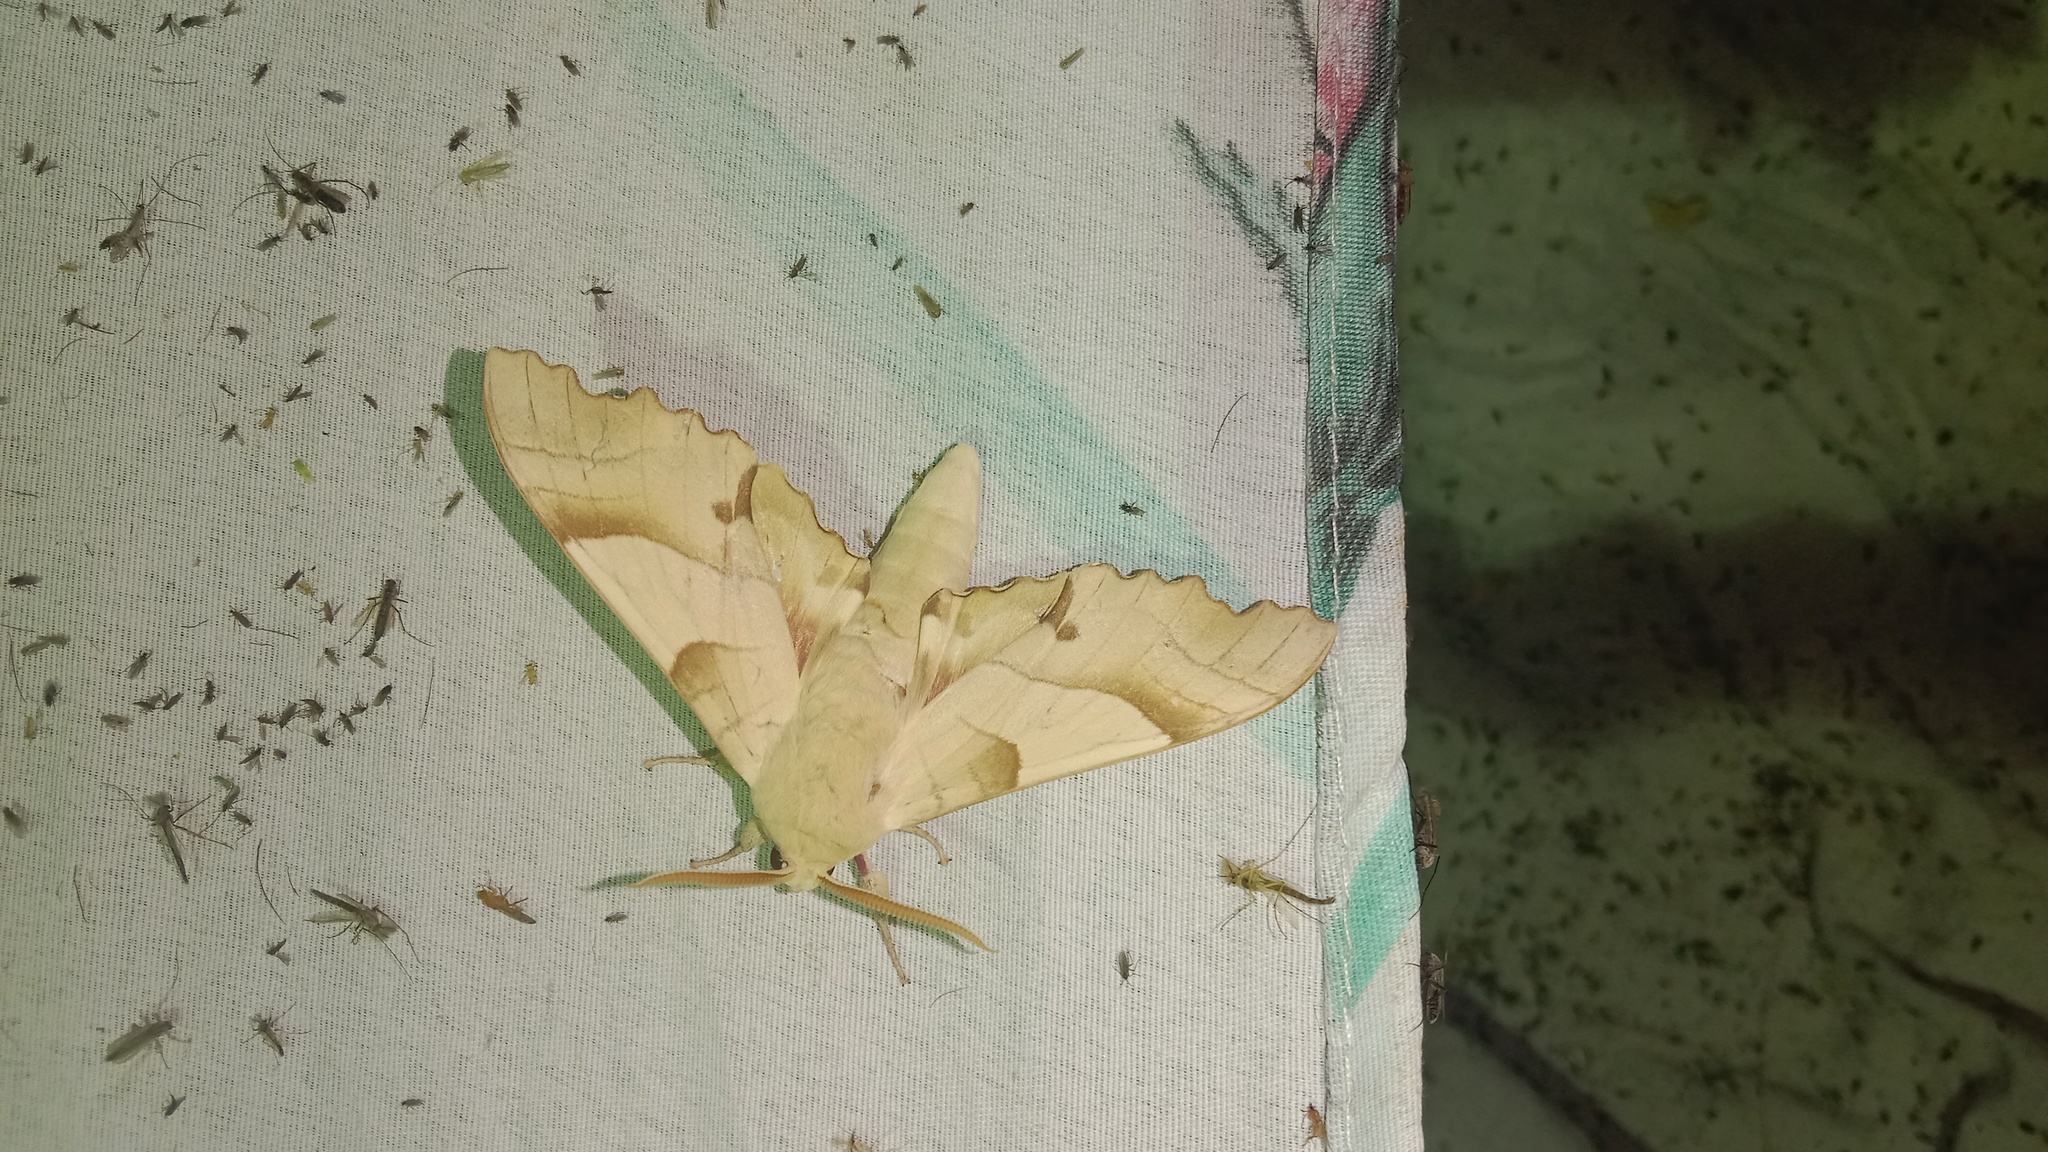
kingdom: Animalia
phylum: Arthropoda
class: Insecta
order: Lepidoptera
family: Sphingidae
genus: Marumba
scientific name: Marumba quercus
